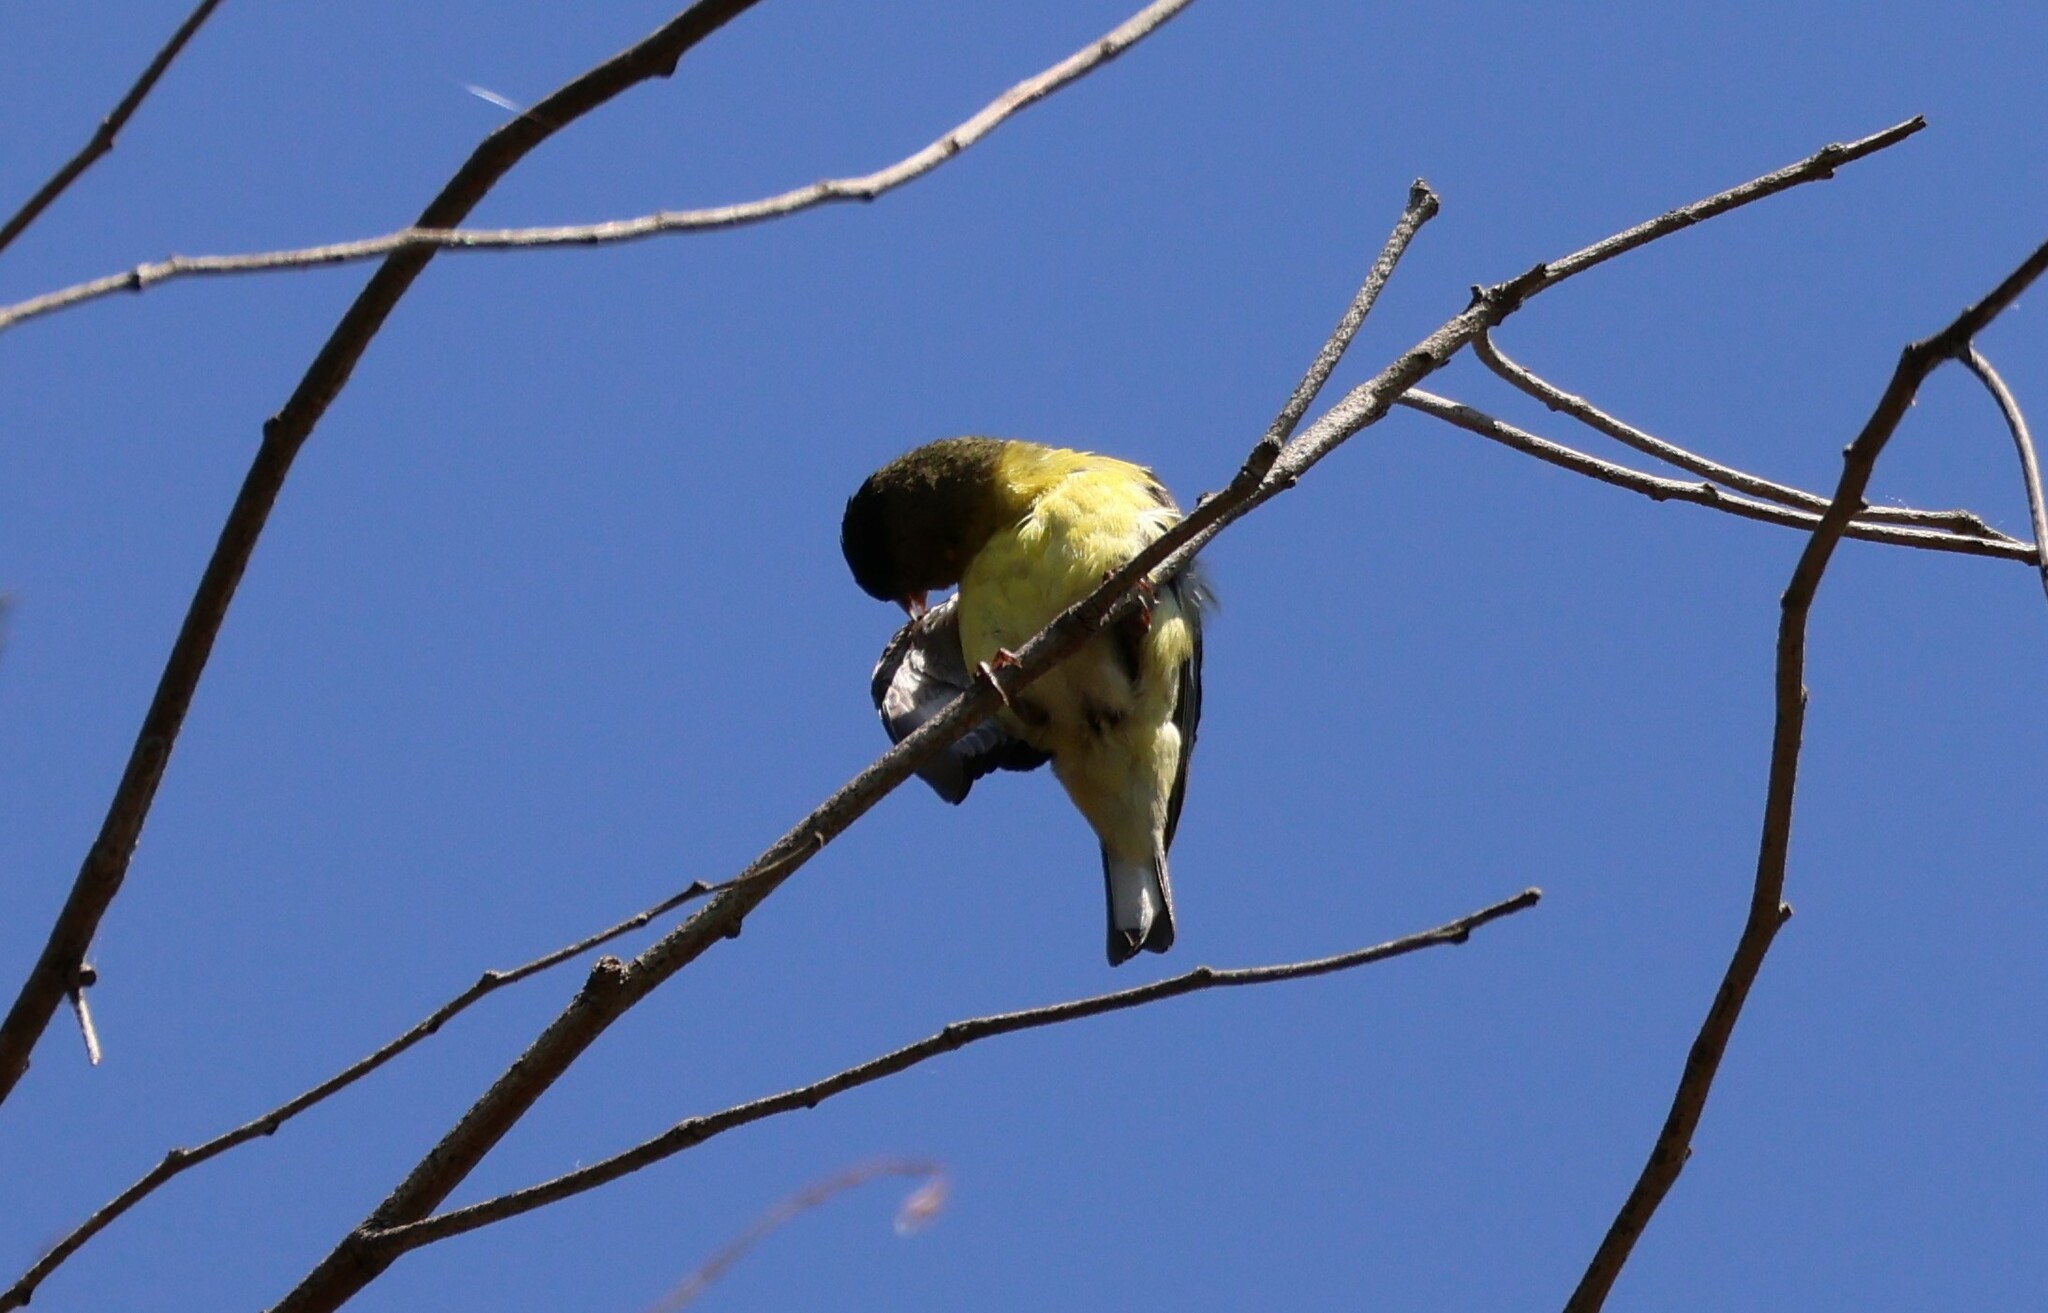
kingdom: Animalia
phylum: Chordata
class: Aves
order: Passeriformes
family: Fringillidae
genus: Spinus
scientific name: Spinus psaltria
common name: Lesser goldfinch
